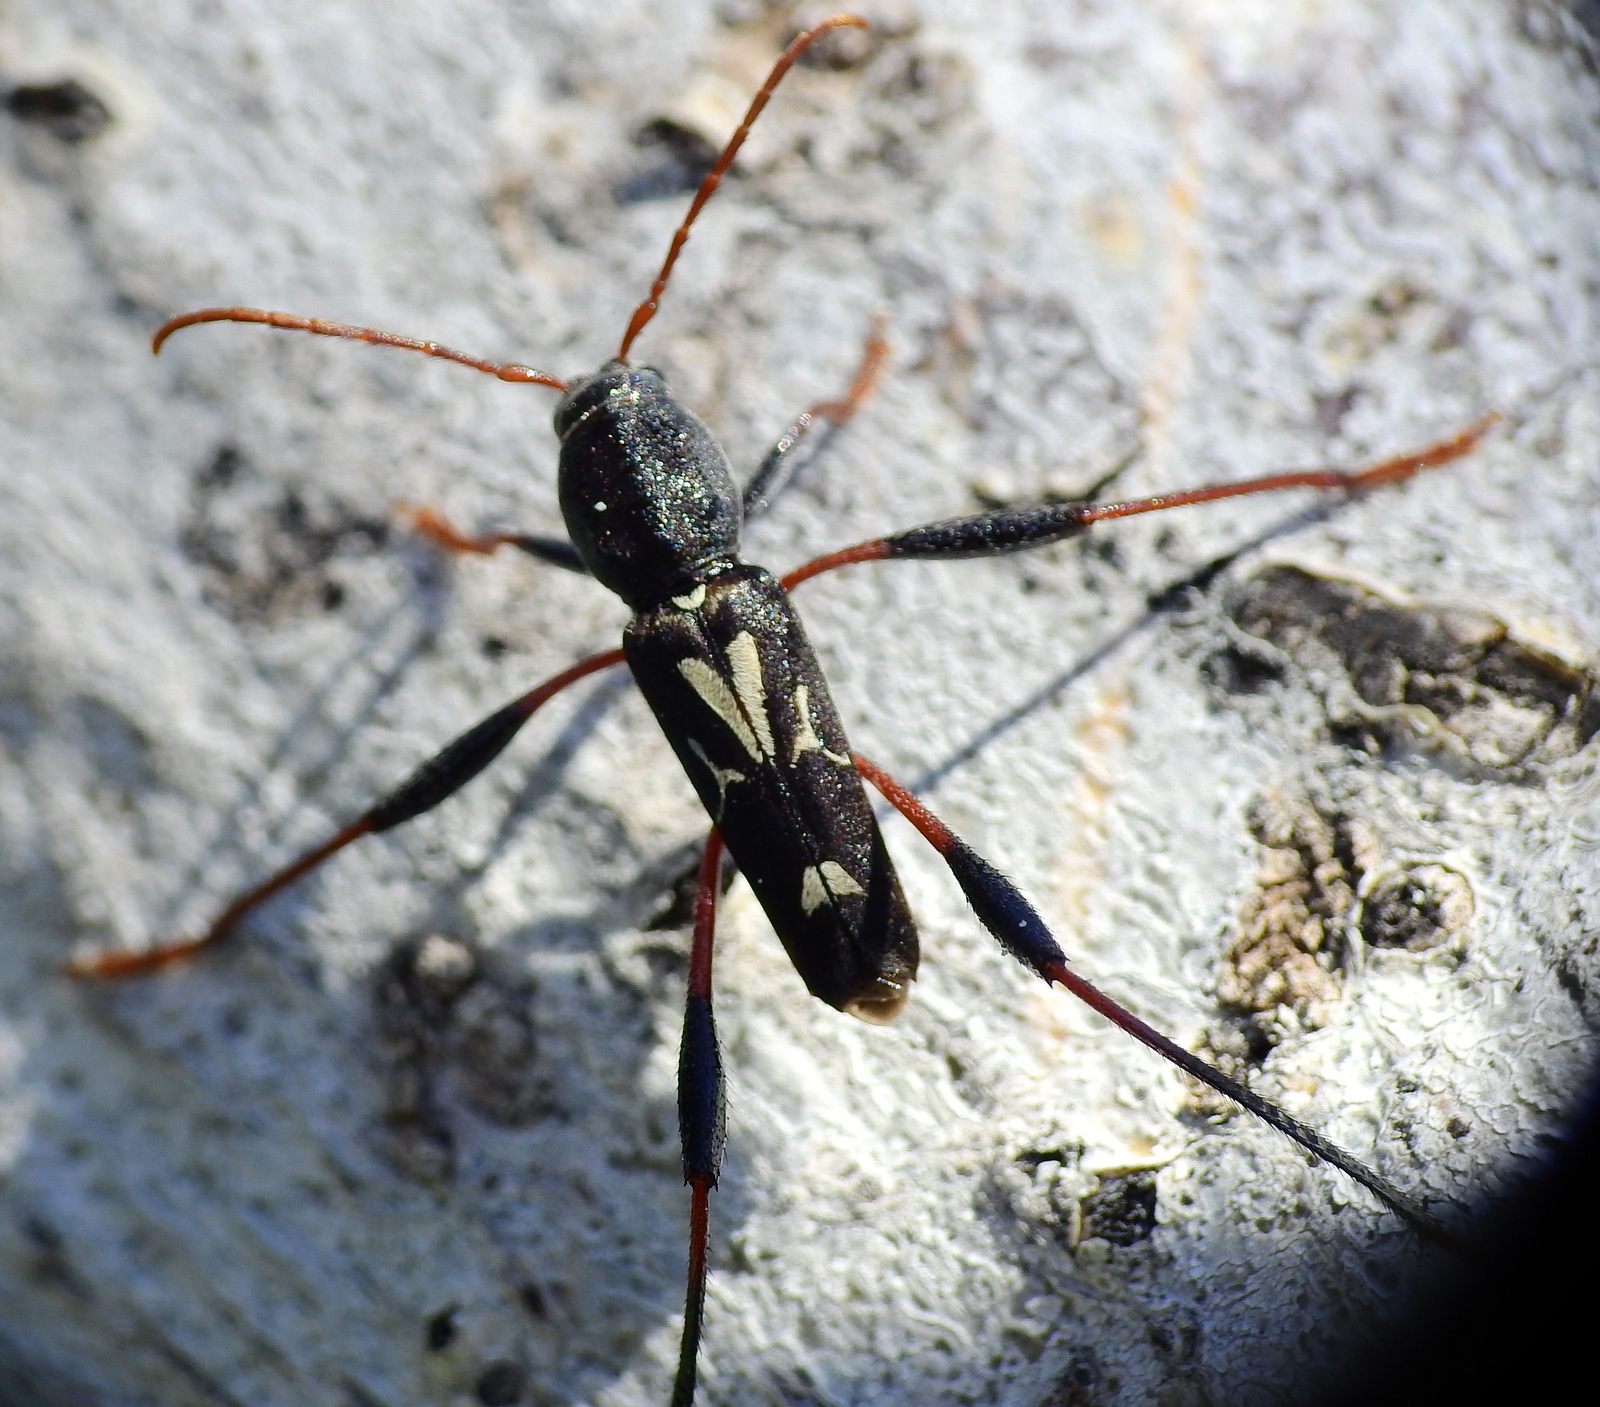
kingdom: Animalia
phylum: Arthropoda
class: Insecta
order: Coleoptera
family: Cerambycidae
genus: Neoclytus
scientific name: Neoclytus ypsilon
